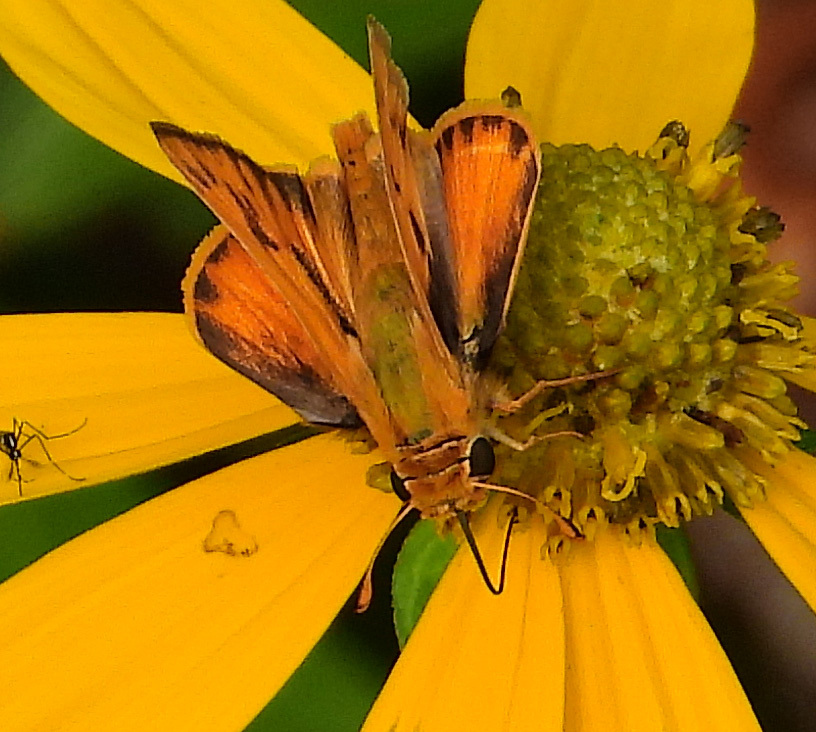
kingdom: Animalia
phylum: Arthropoda
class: Insecta
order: Lepidoptera
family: Hesperiidae
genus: Hylephila
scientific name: Hylephila phyleus
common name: Fiery skipper
